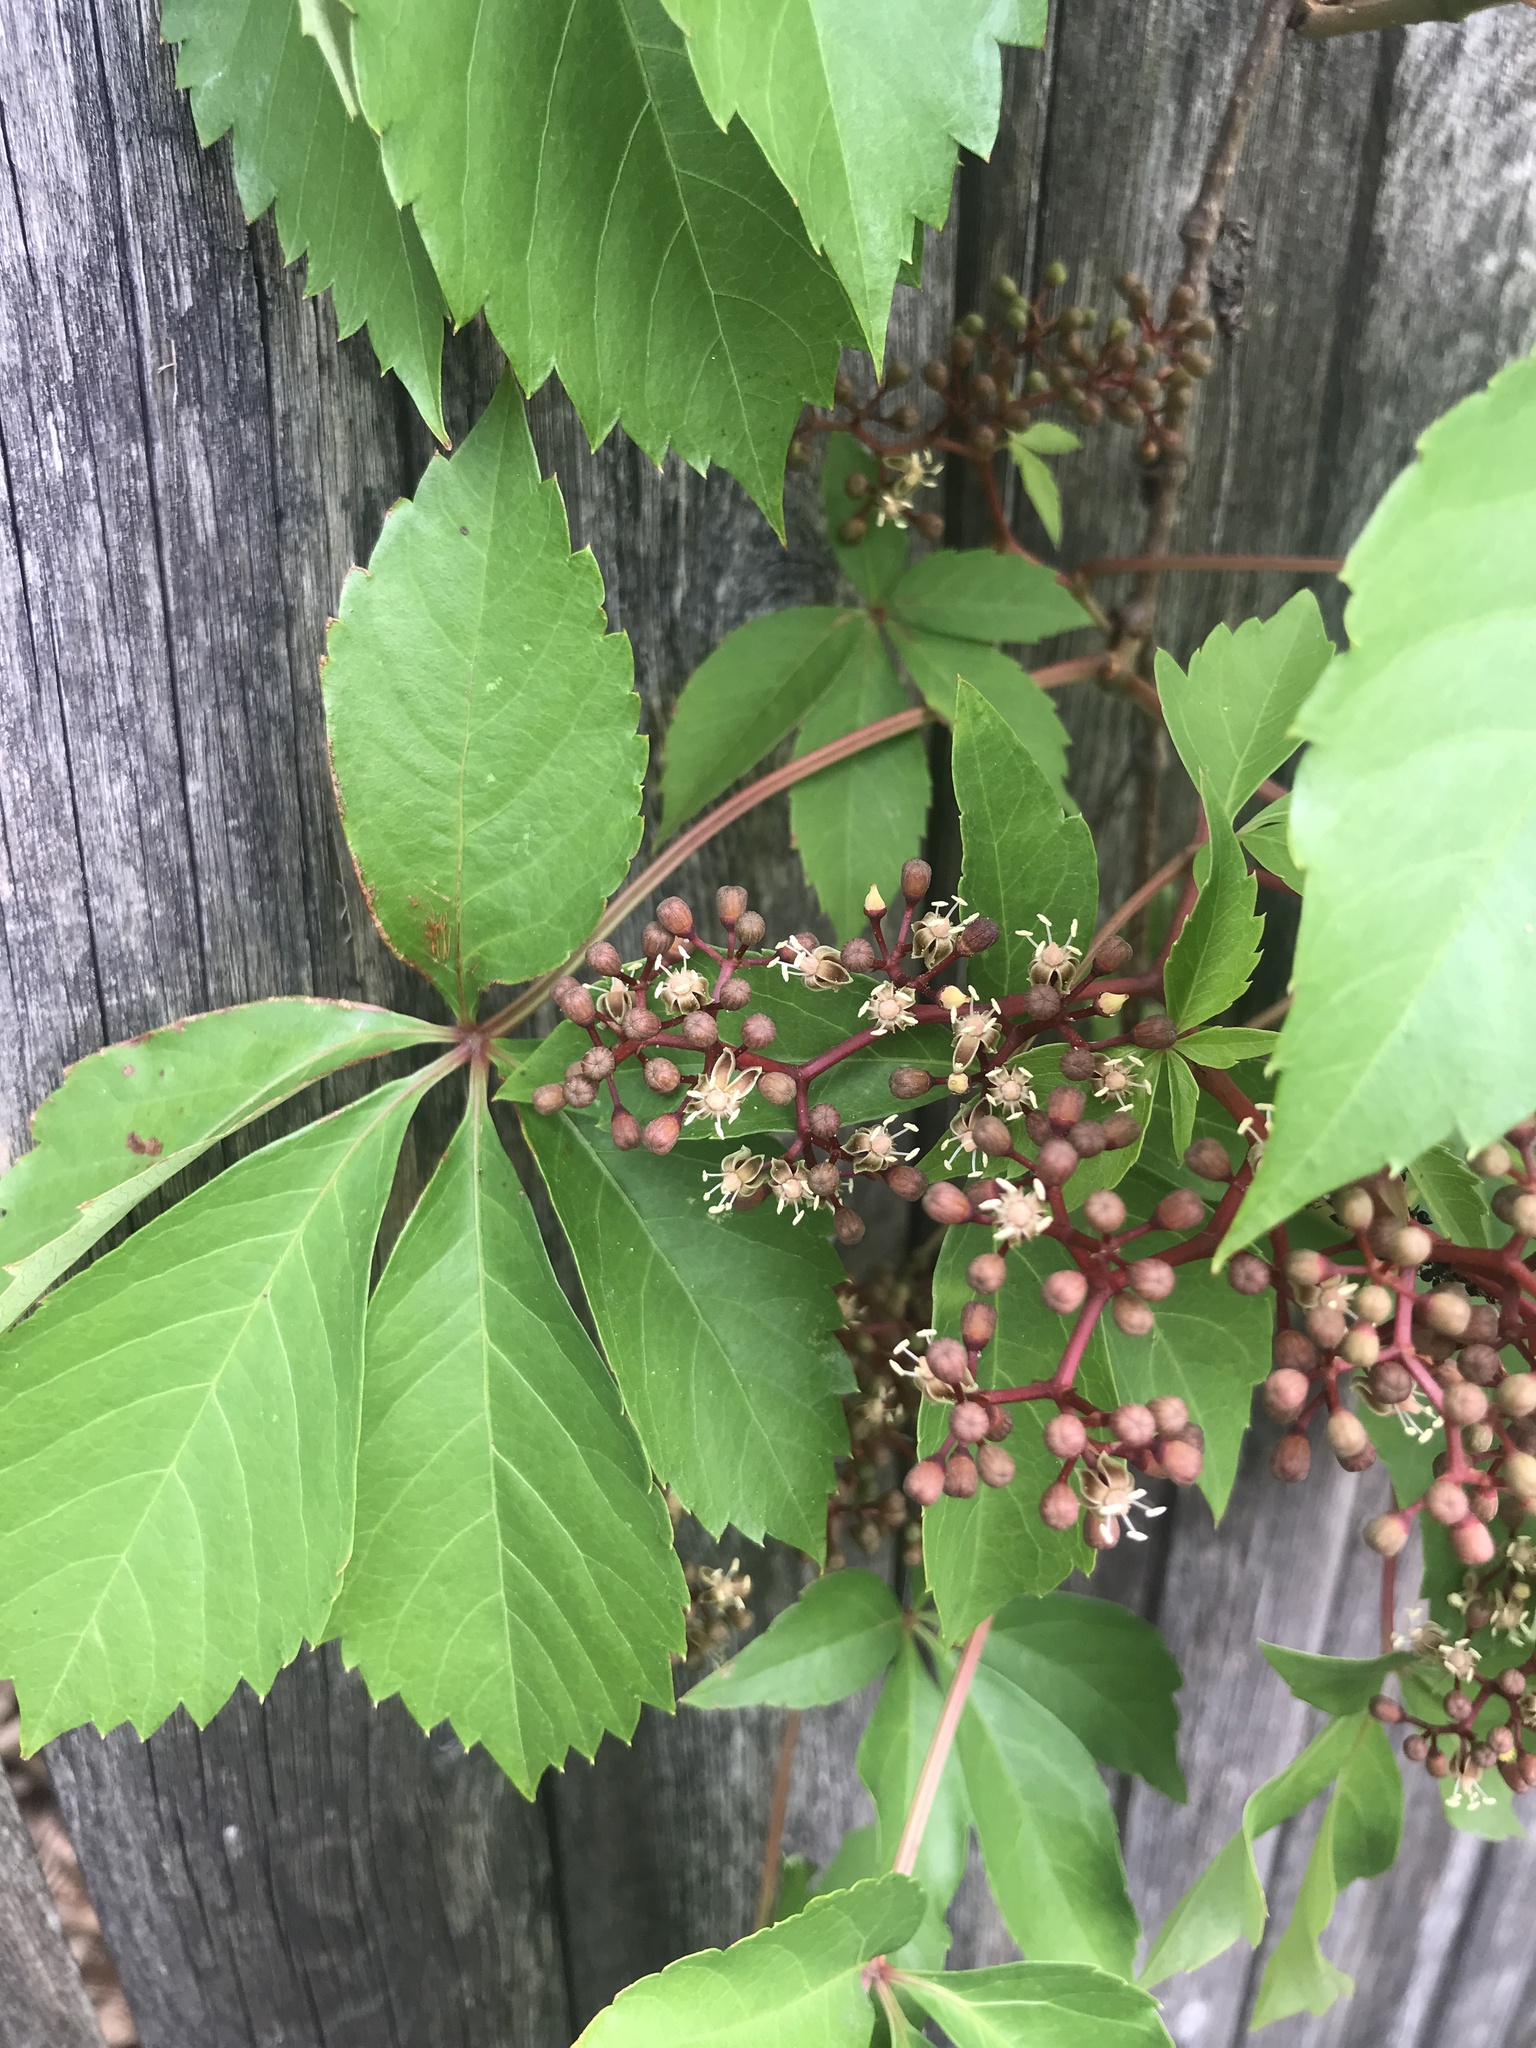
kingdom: Plantae
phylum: Tracheophyta
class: Magnoliopsida
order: Vitales
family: Vitaceae
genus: Parthenocissus
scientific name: Parthenocissus quinquefolia
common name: Virginia-creeper
